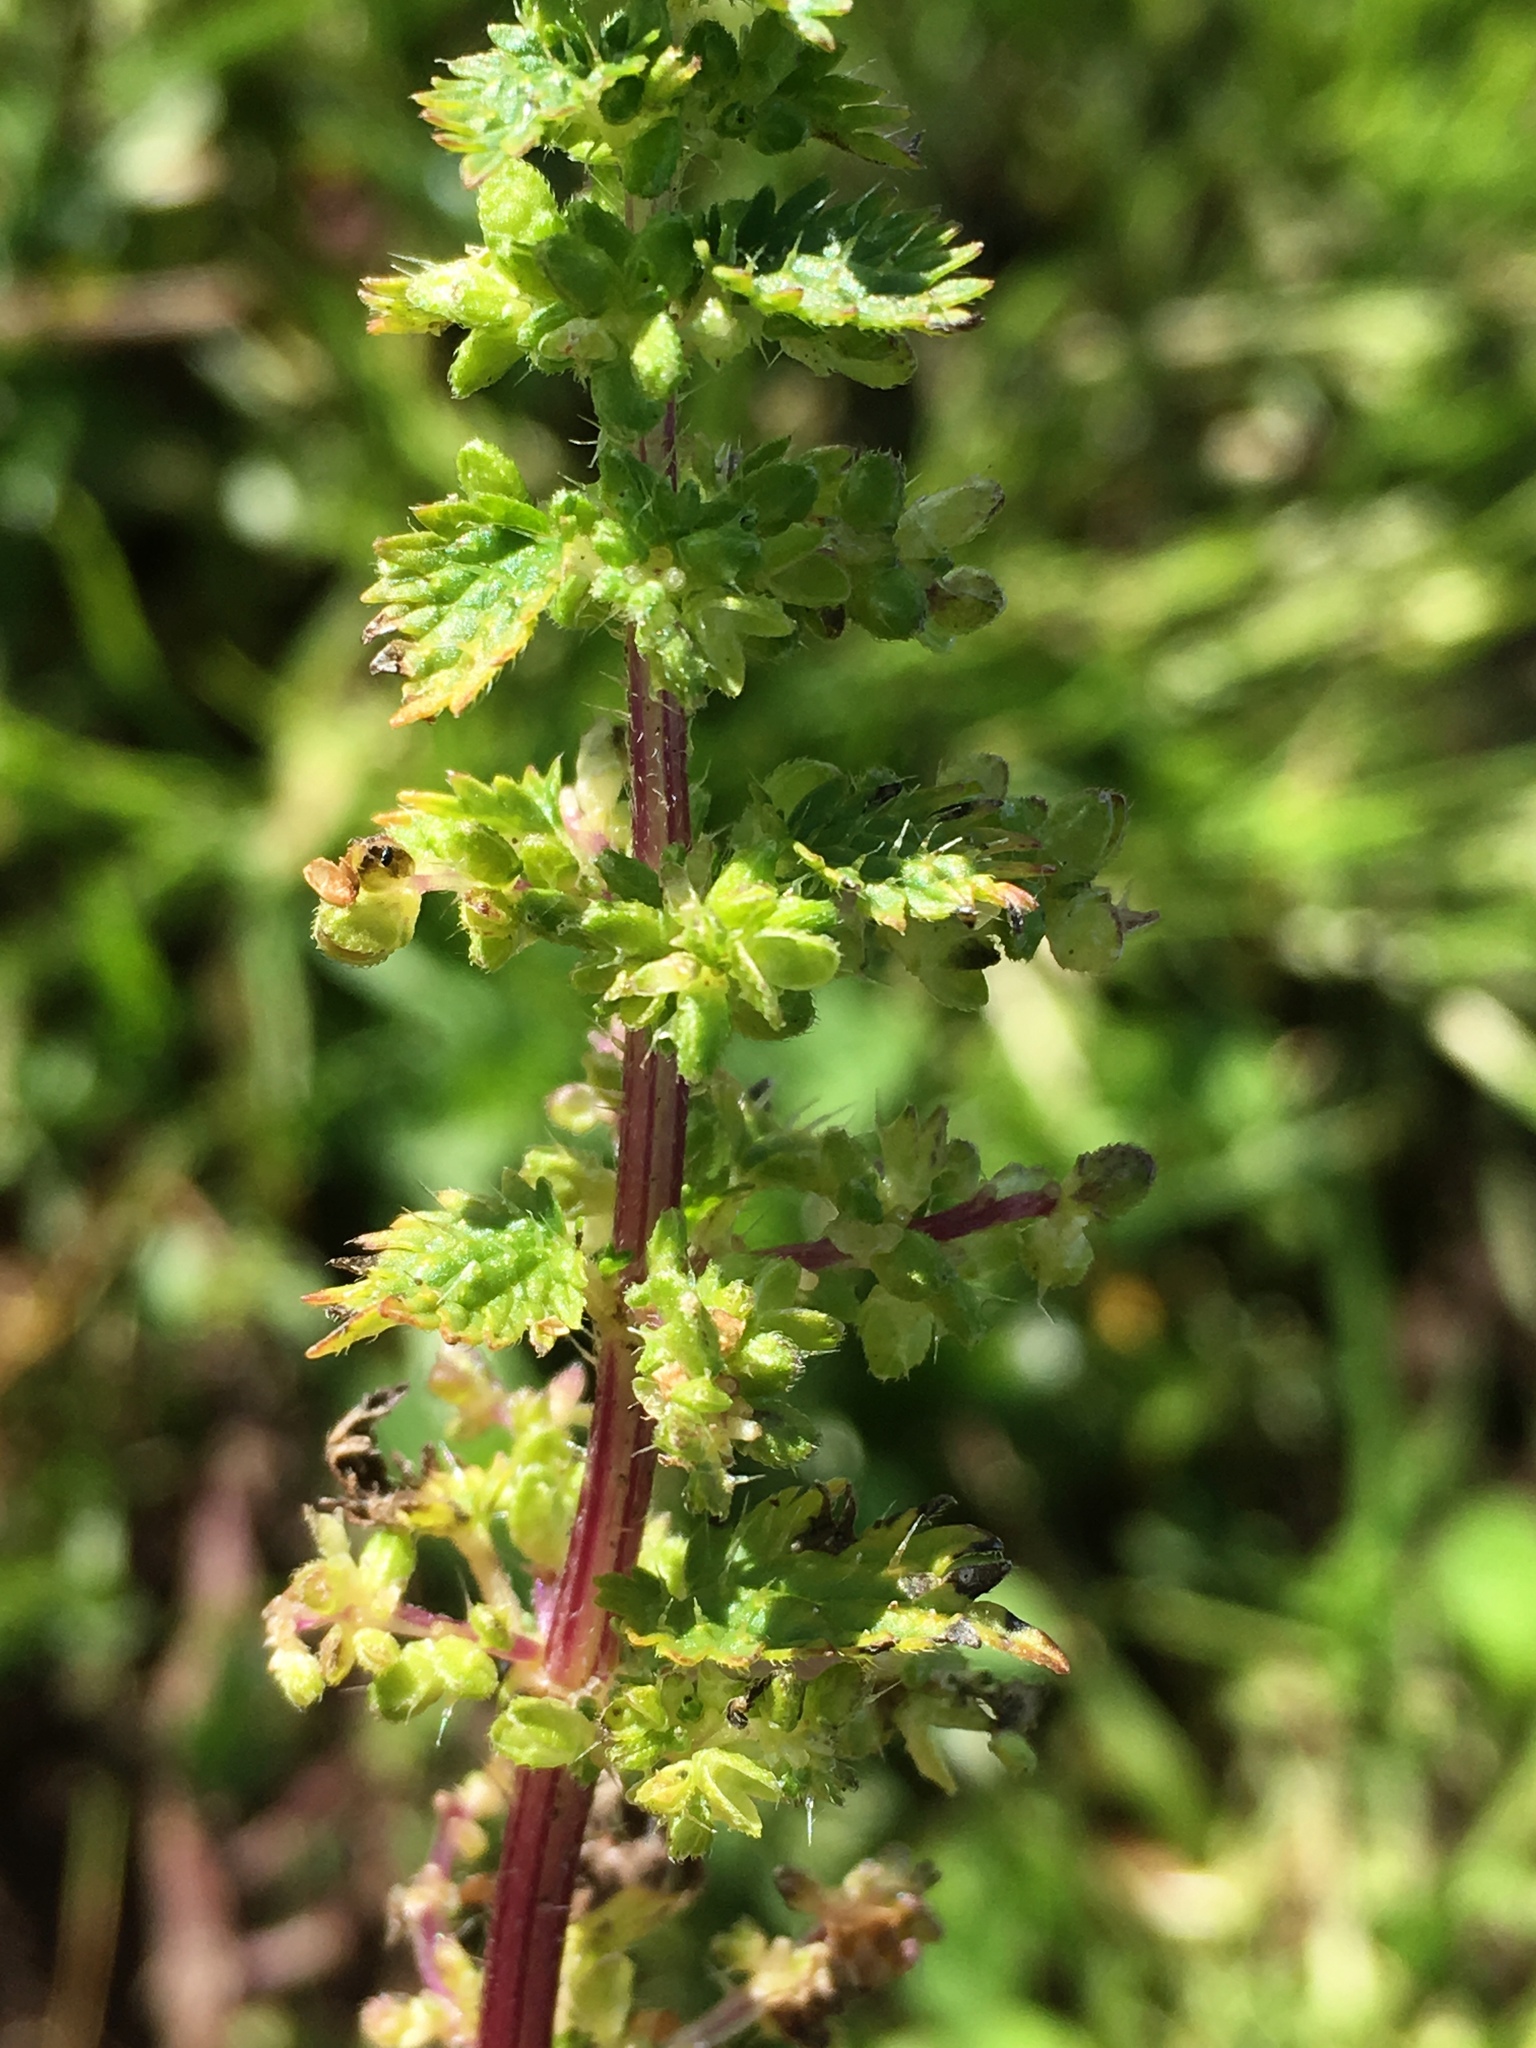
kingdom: Plantae
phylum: Tracheophyta
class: Magnoliopsida
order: Rosales
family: Urticaceae
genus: Urtica
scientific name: Urtica urens
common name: Dwarf nettle
